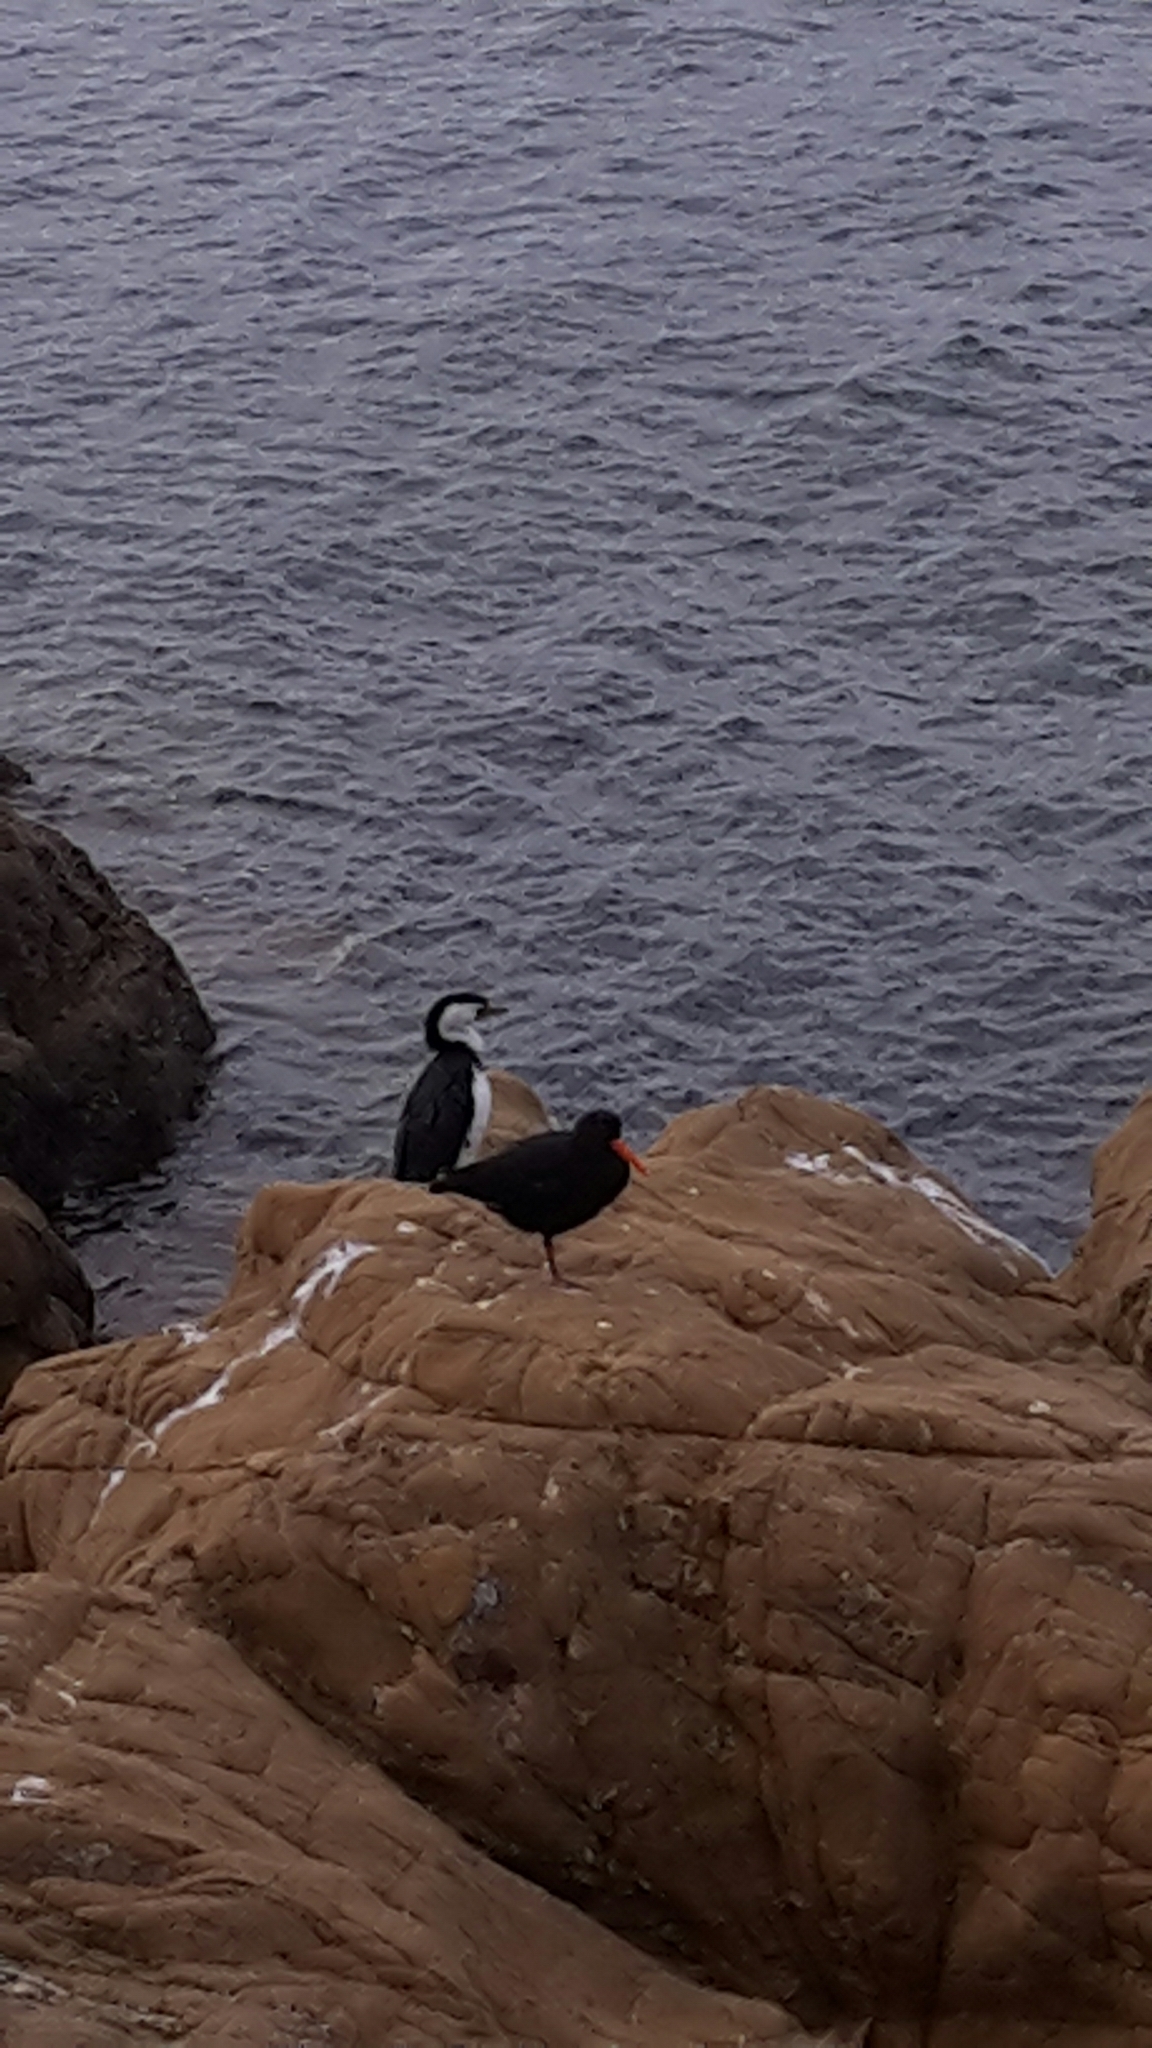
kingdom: Animalia
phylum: Chordata
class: Aves
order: Charadriiformes
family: Haematopodidae
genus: Haematopus
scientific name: Haematopus unicolor
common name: Variable oystercatcher
